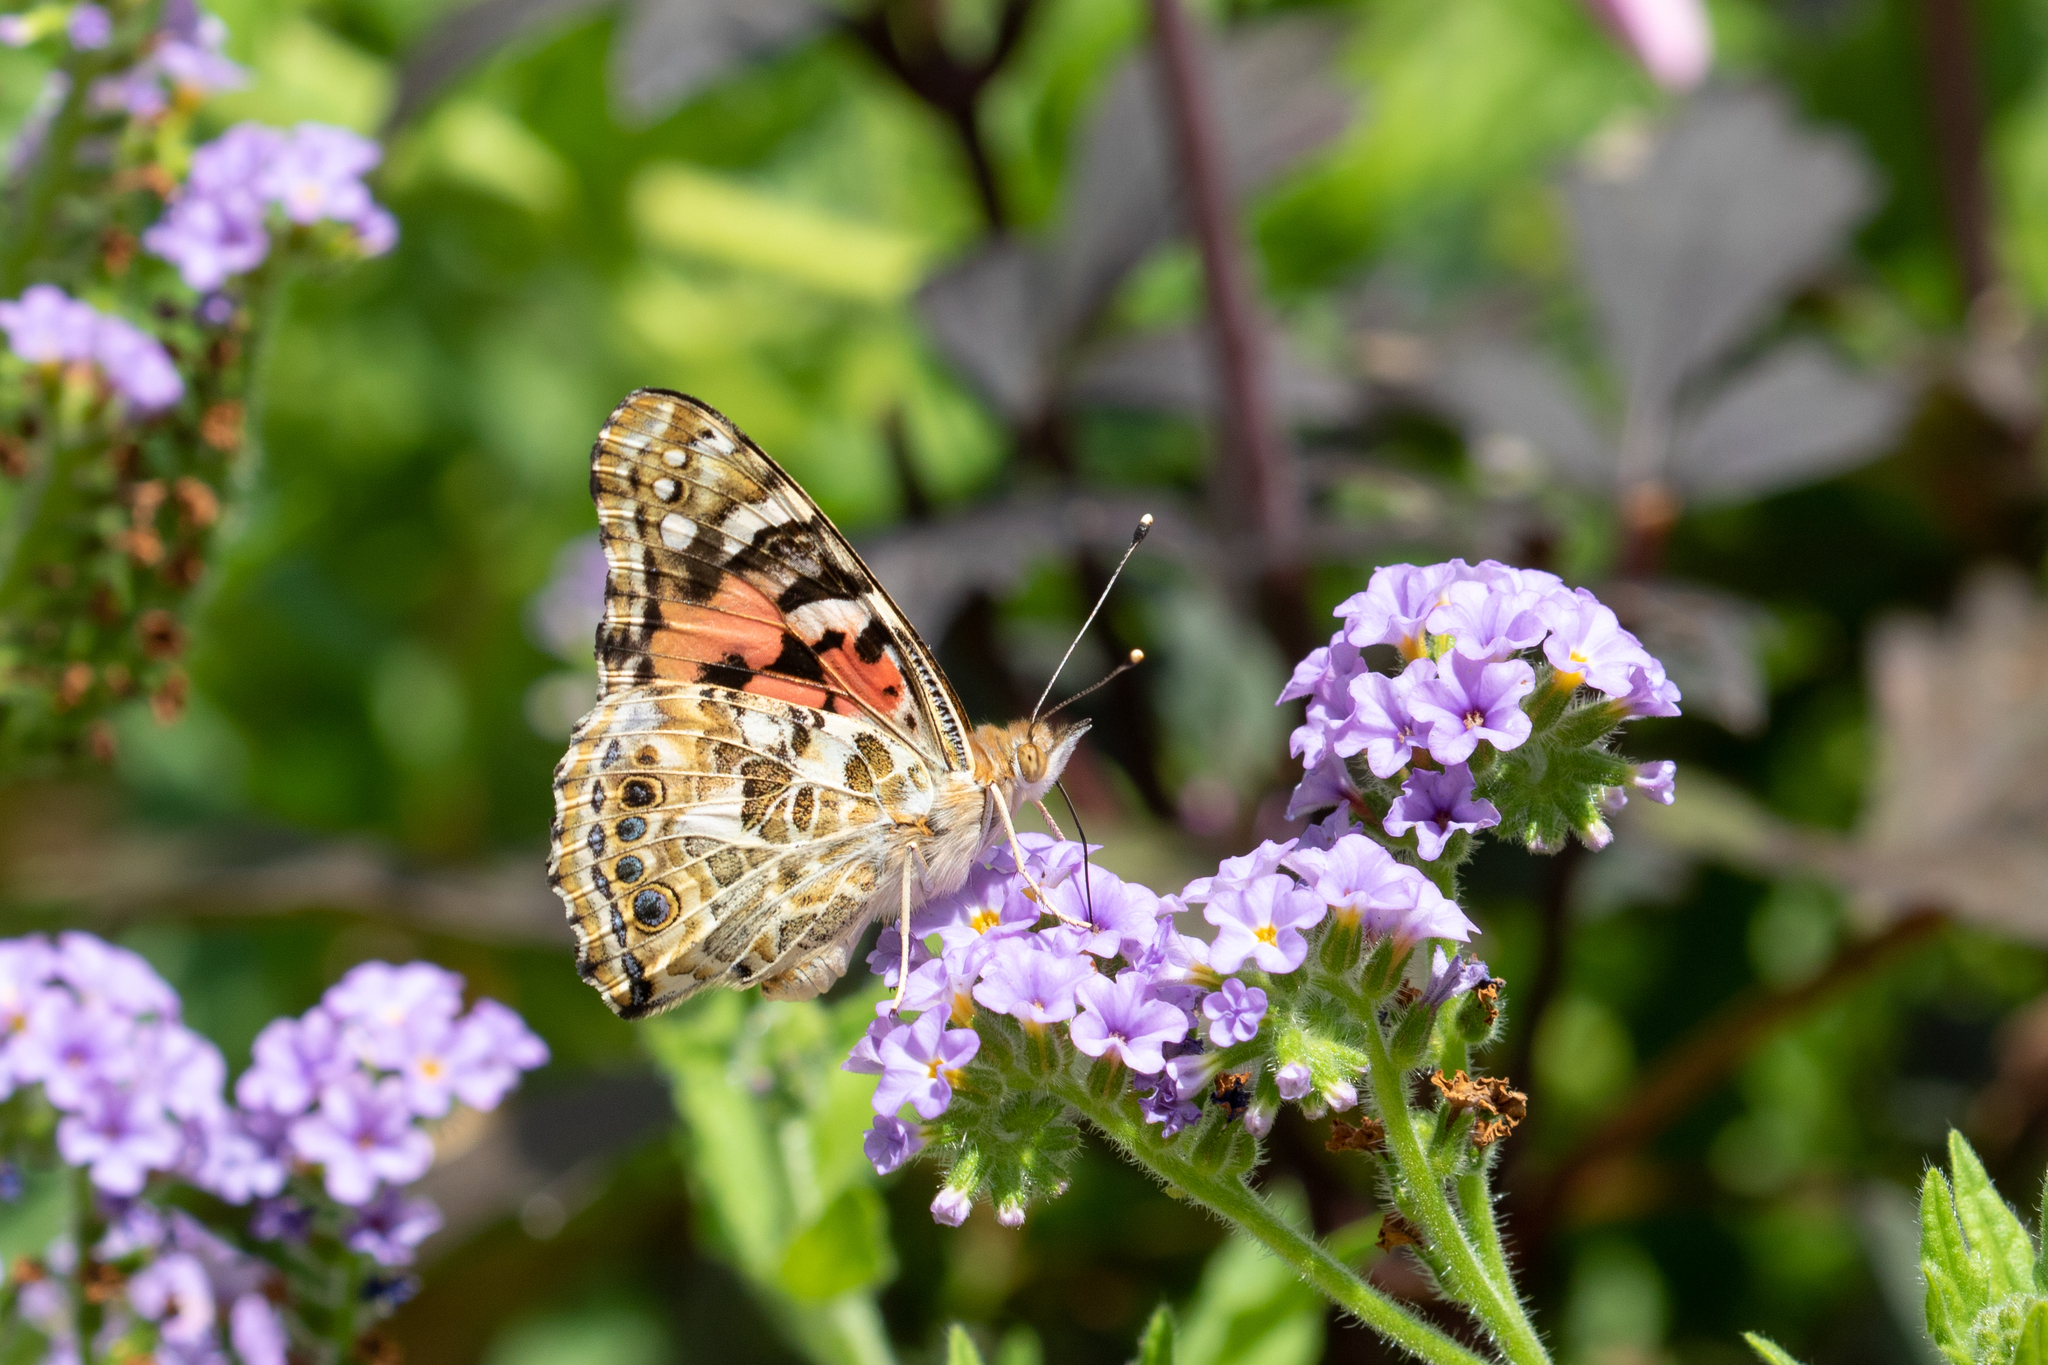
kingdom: Animalia
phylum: Arthropoda
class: Insecta
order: Lepidoptera
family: Nymphalidae
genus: Vanessa
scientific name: Vanessa cardui
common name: Painted lady
